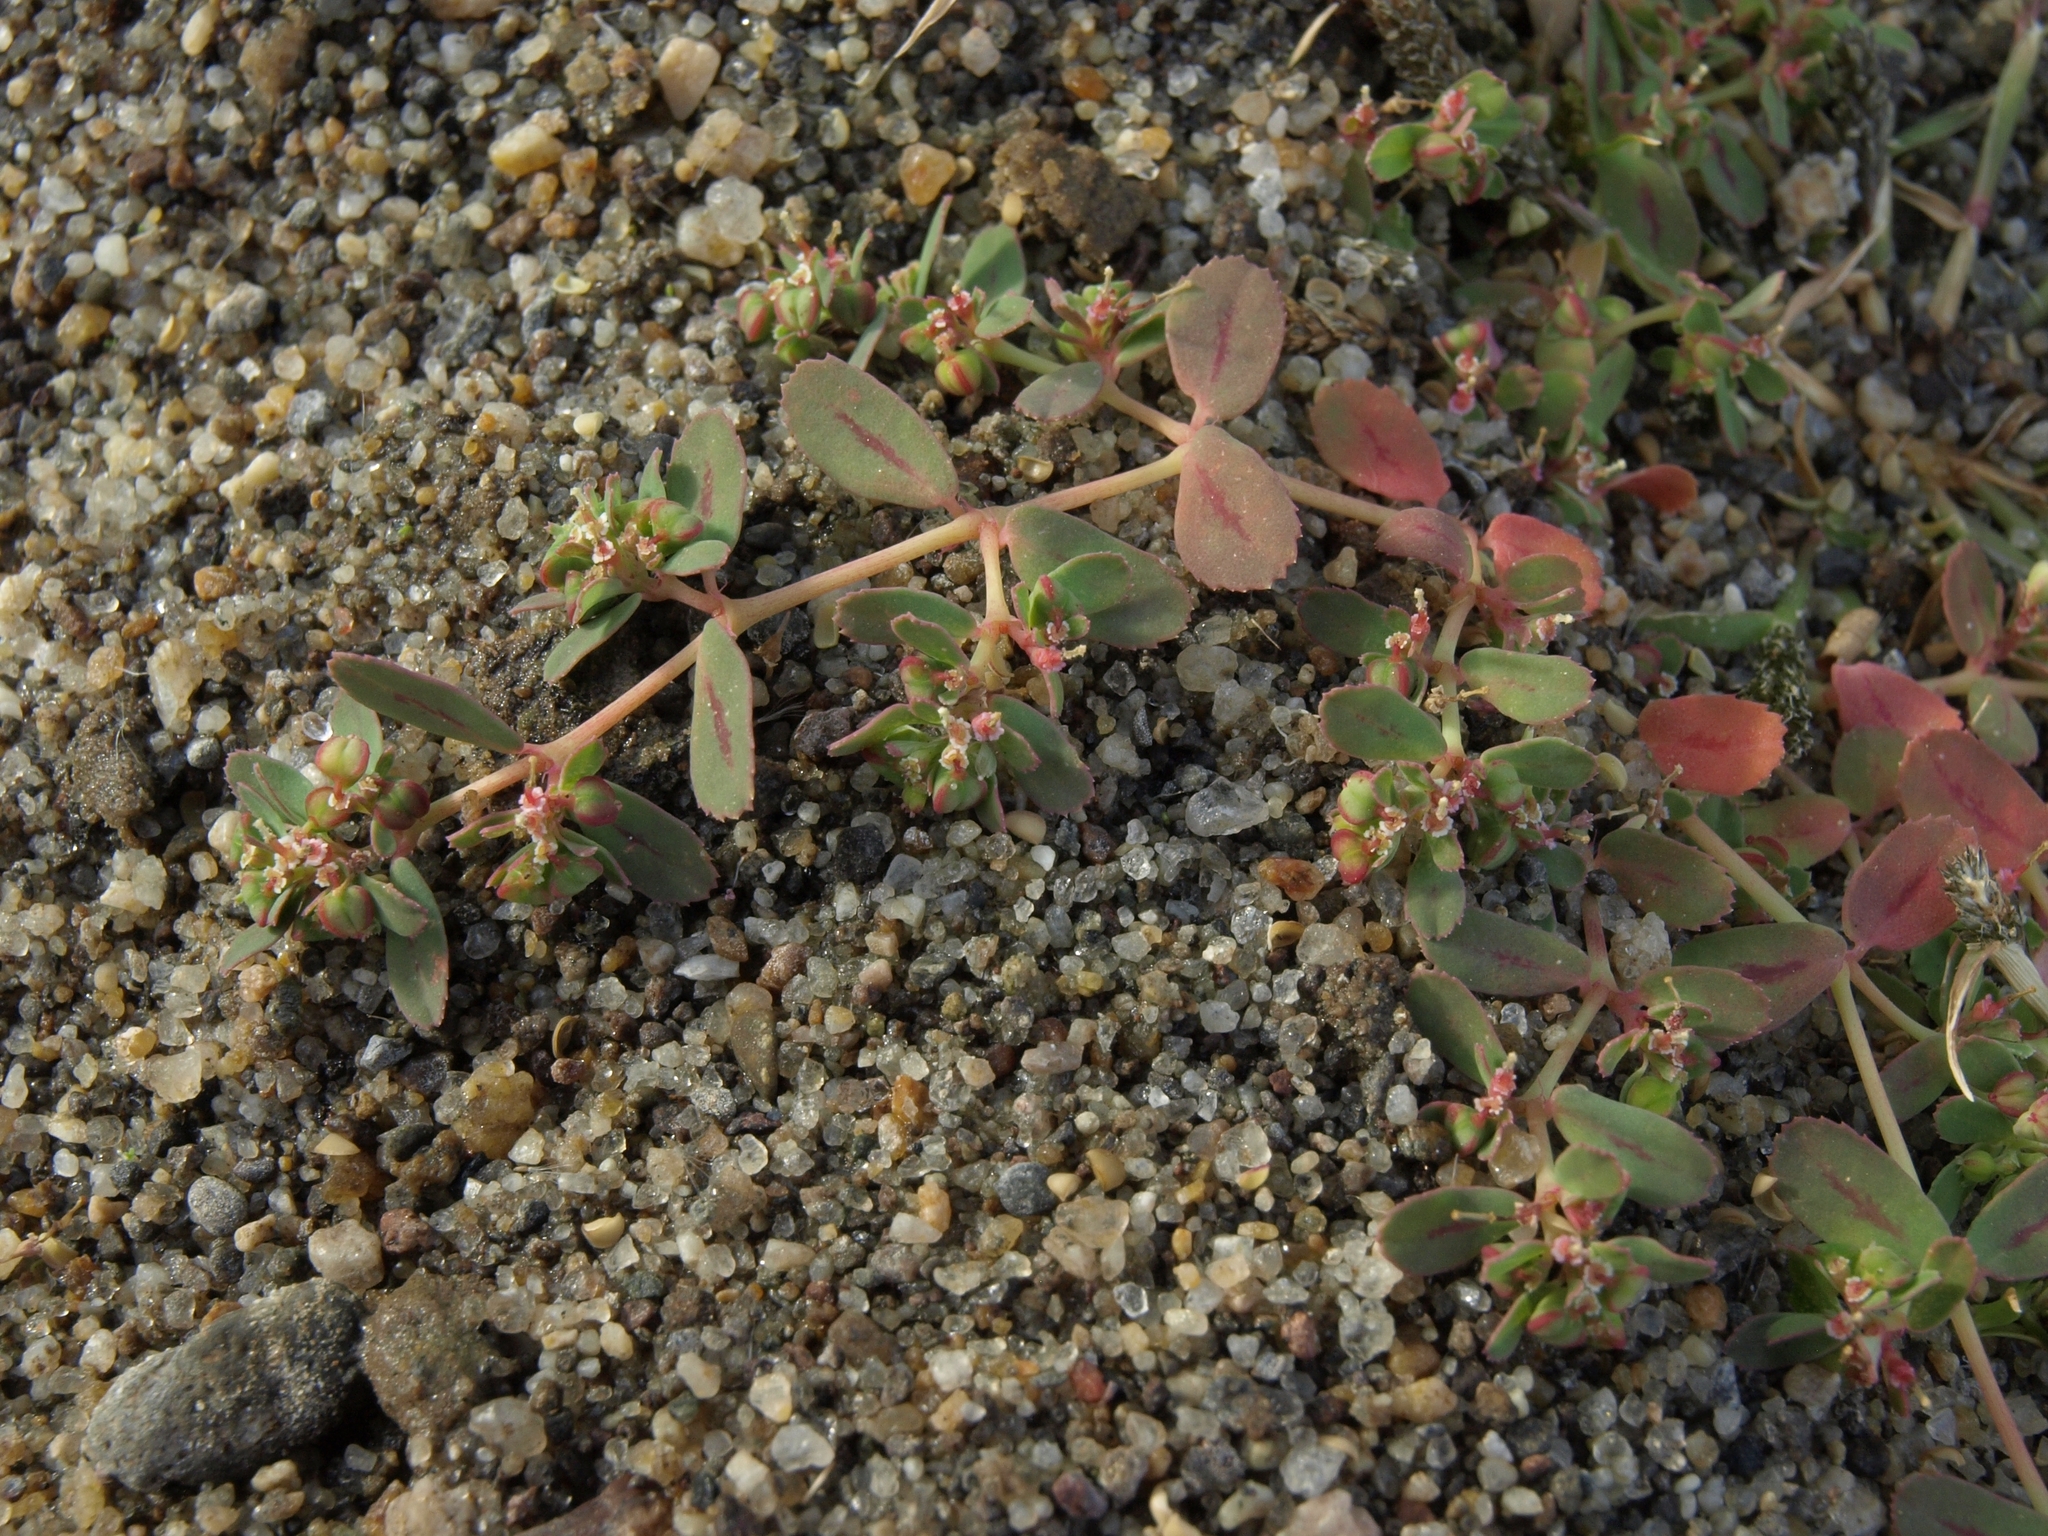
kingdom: Plantae
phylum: Tracheophyta
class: Magnoliopsida
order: Malpighiales
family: Euphorbiaceae
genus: Euphorbia
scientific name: Euphorbia serpillifolia
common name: Thyme-leaf spurge
